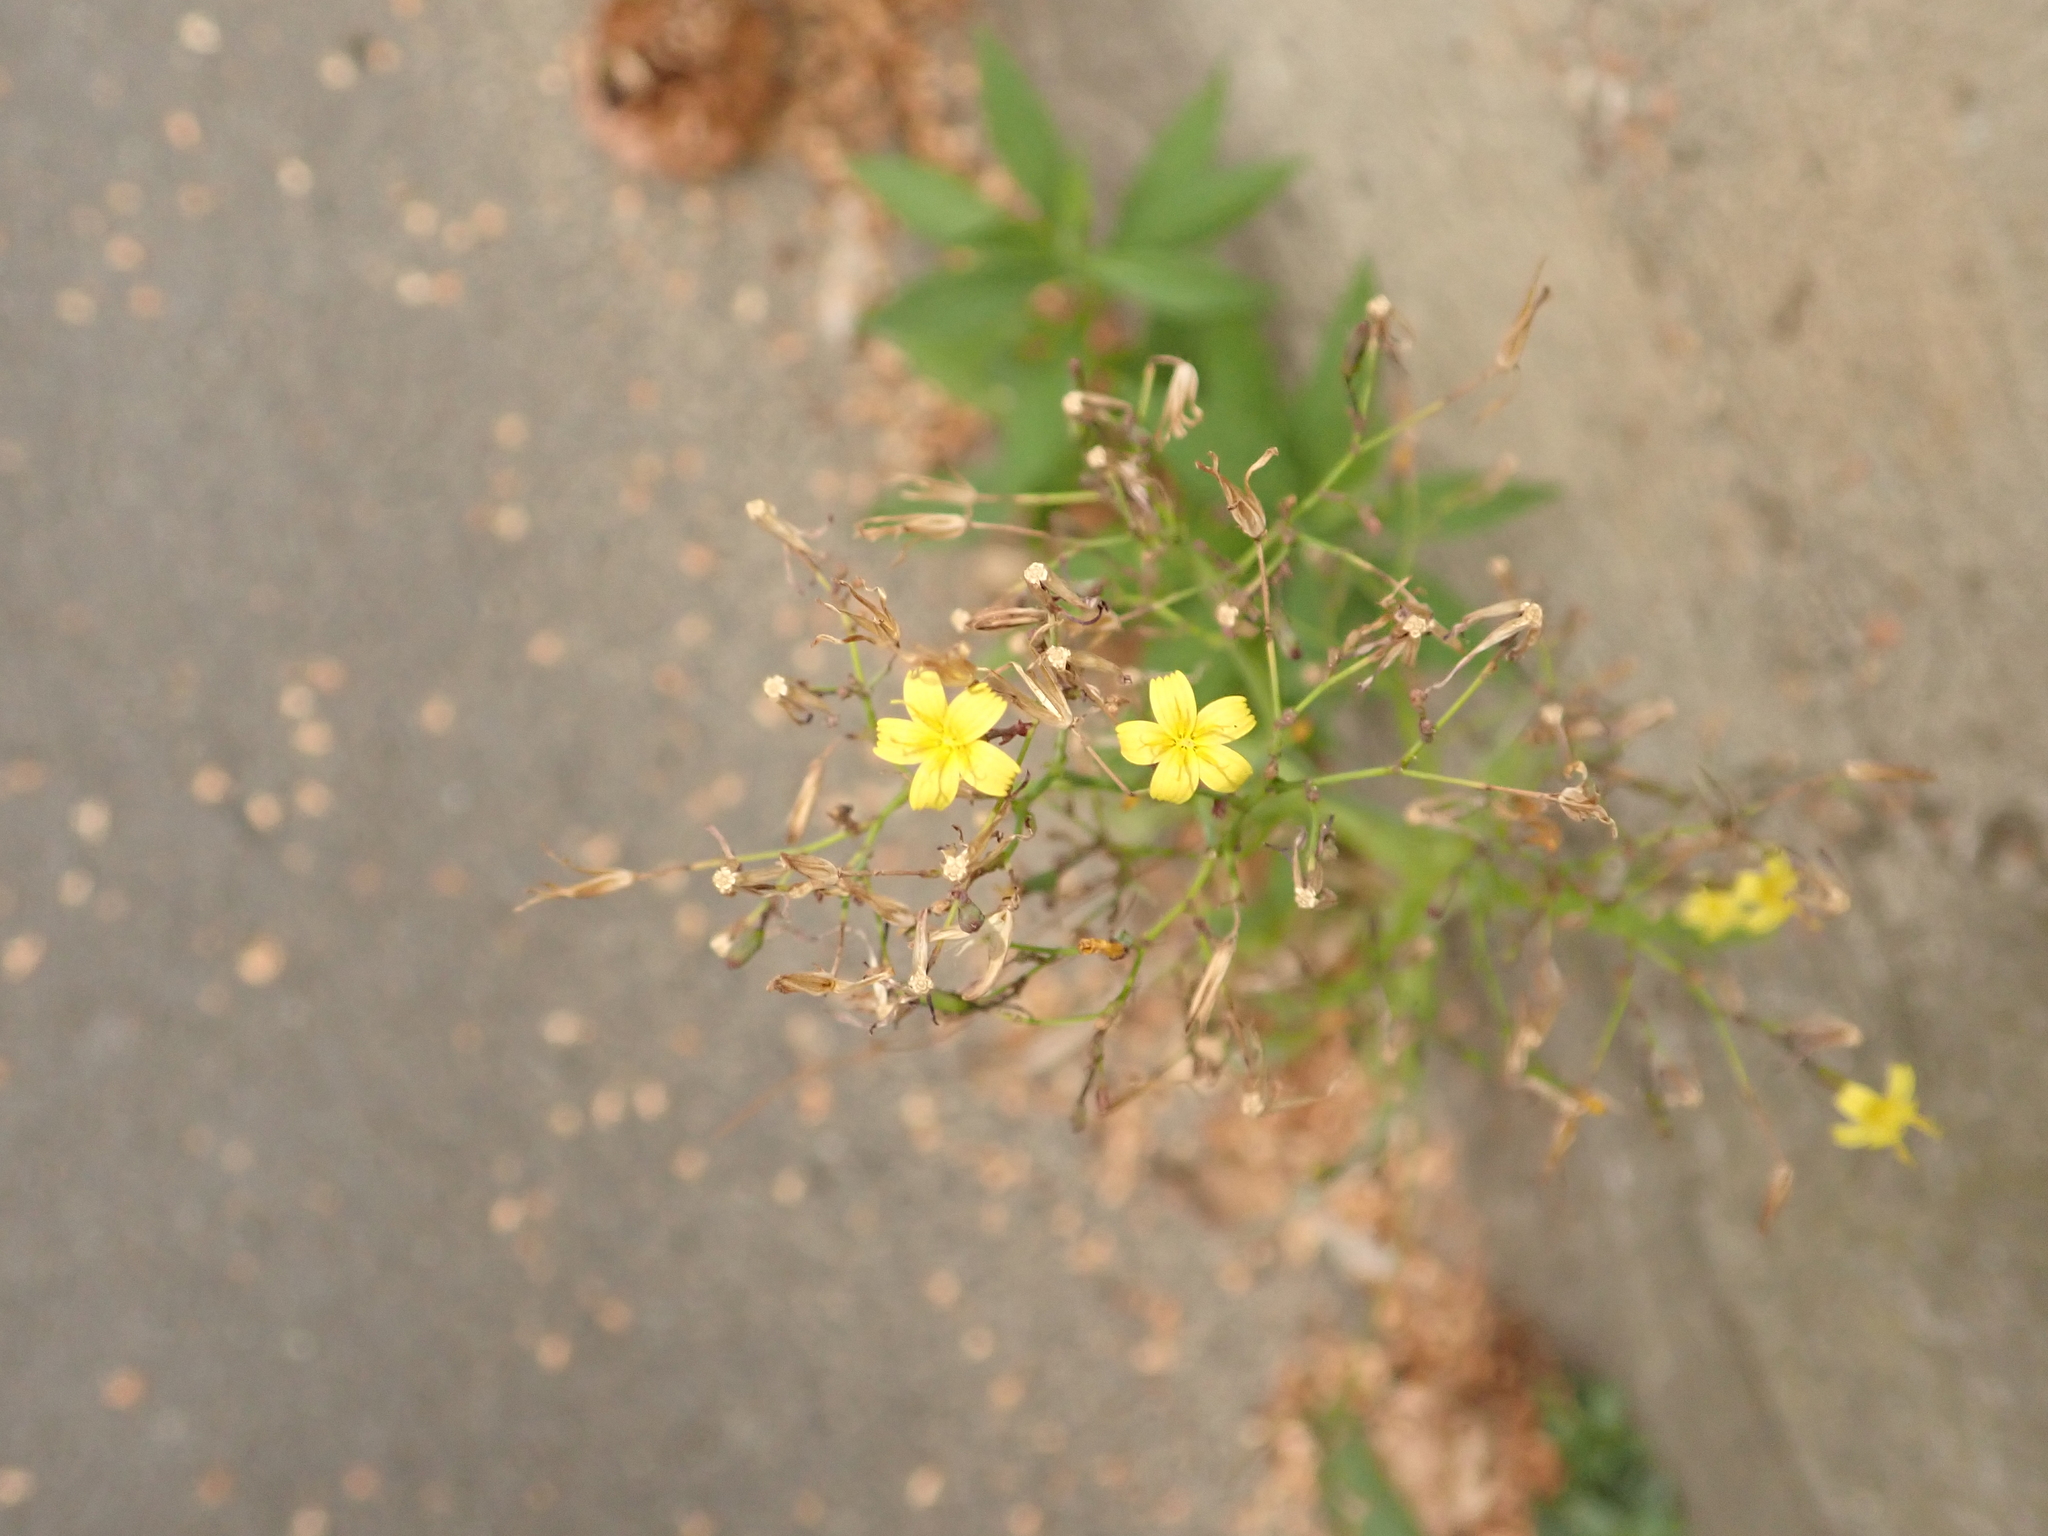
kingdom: Plantae
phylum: Tracheophyta
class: Magnoliopsida
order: Asterales
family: Asteraceae
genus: Mycelis
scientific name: Mycelis muralis
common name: Wall lettuce
